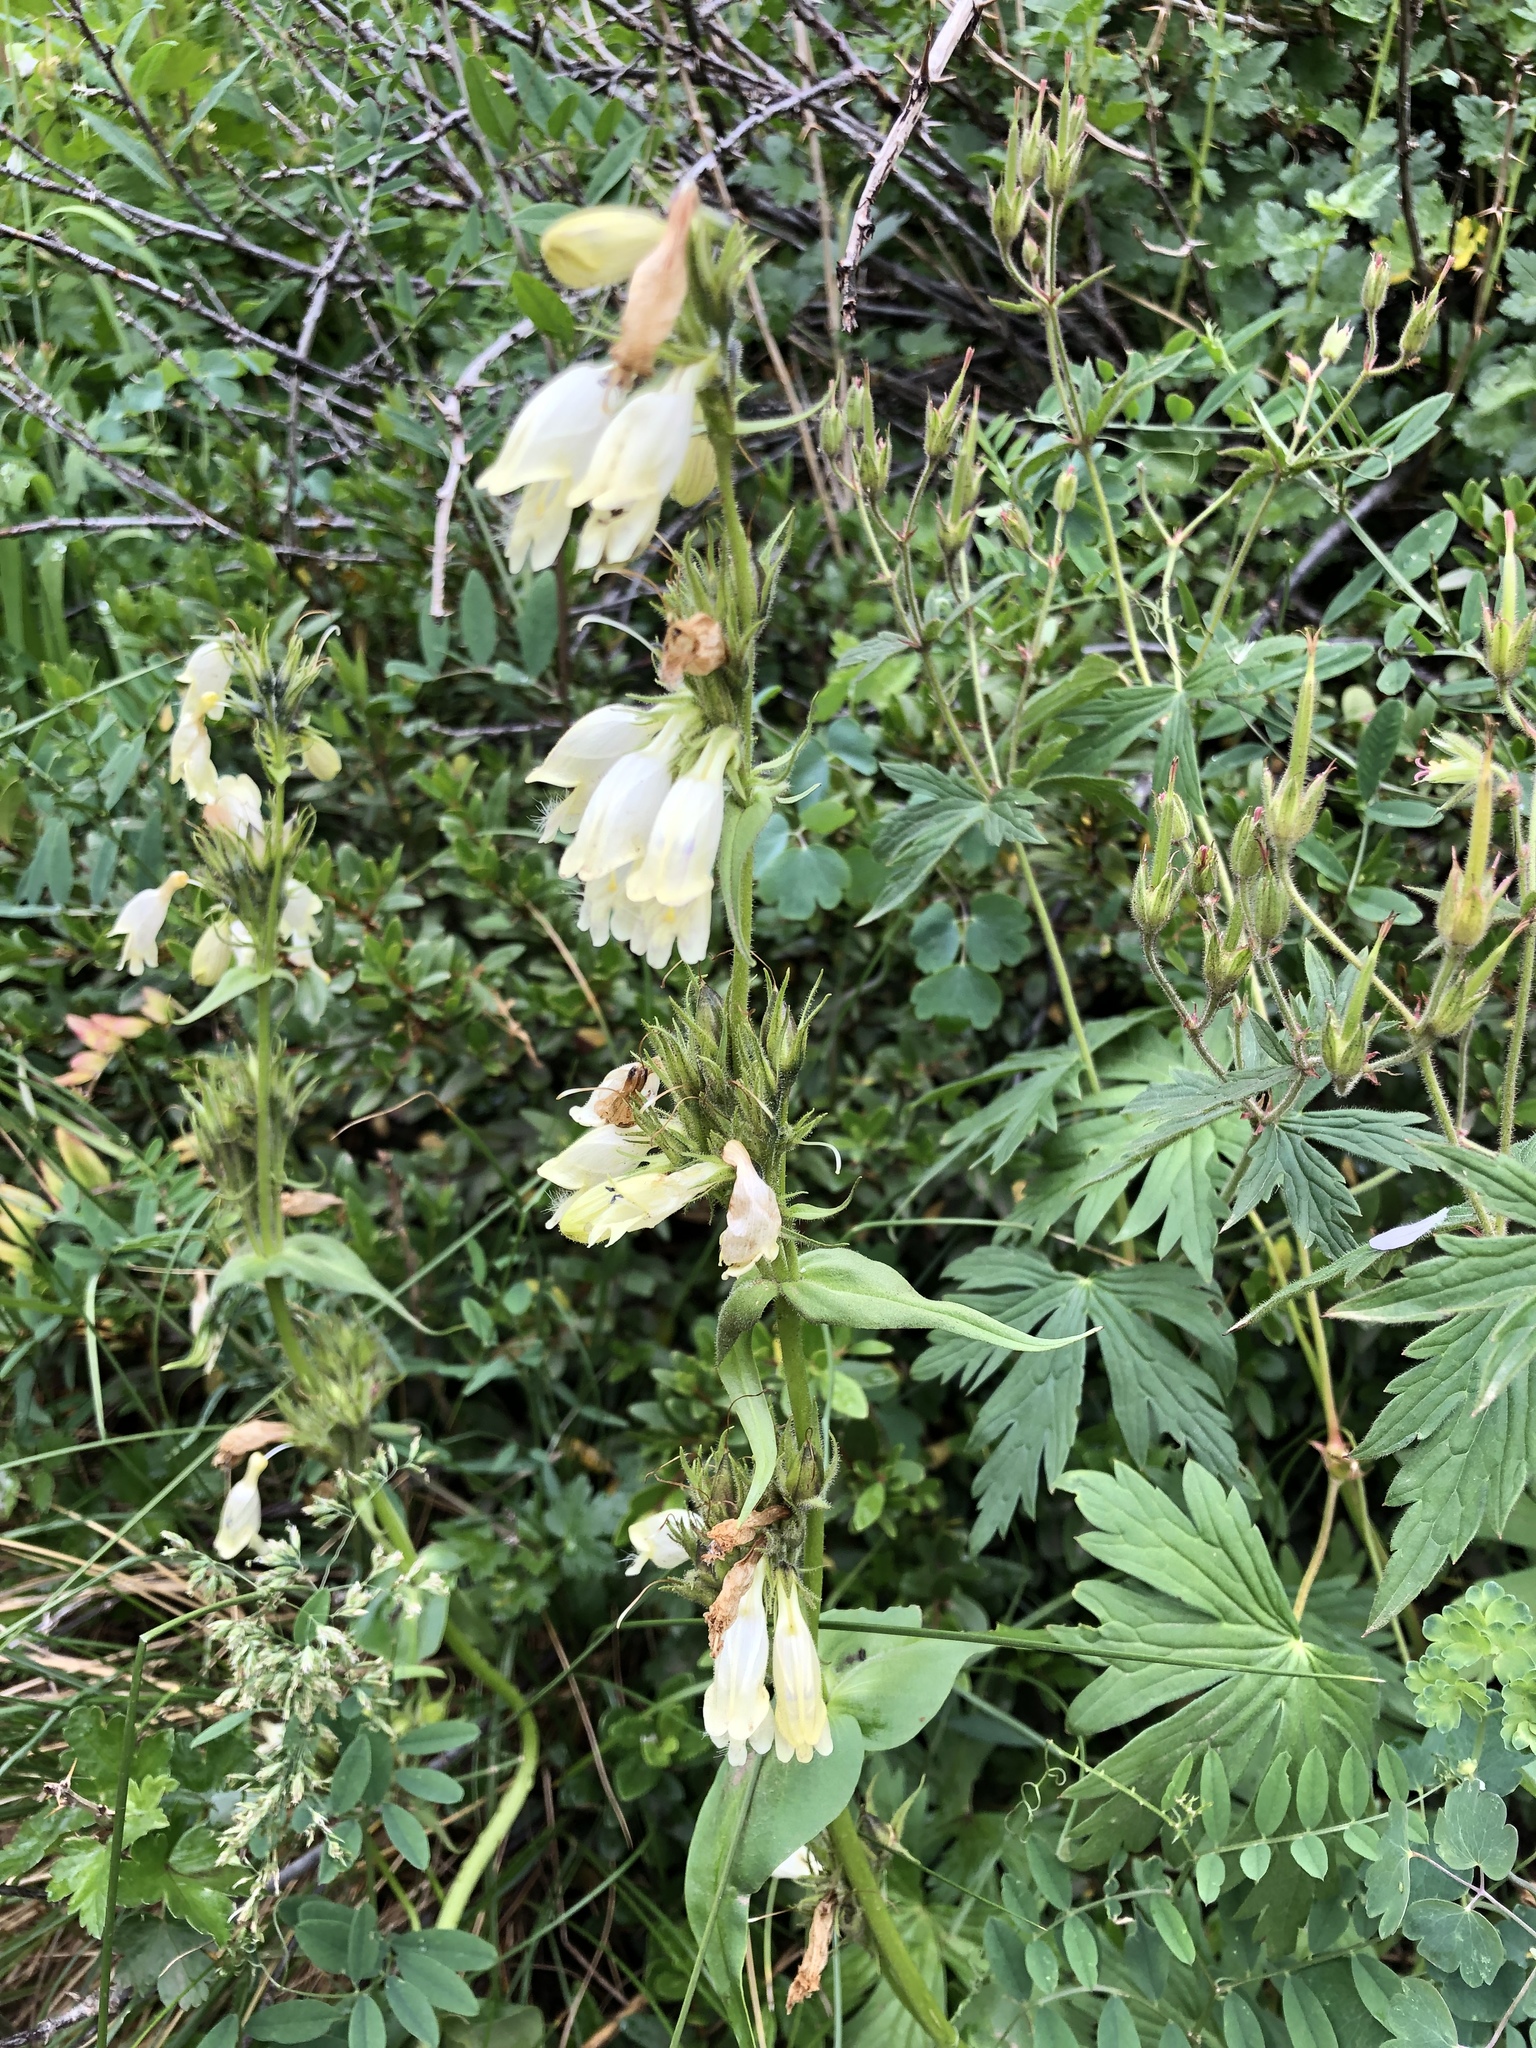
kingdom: Plantae
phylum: Tracheophyta
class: Magnoliopsida
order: Lamiales
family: Plantaginaceae
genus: Penstemon
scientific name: Penstemon whippleanus
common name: Whipple's penstemon
